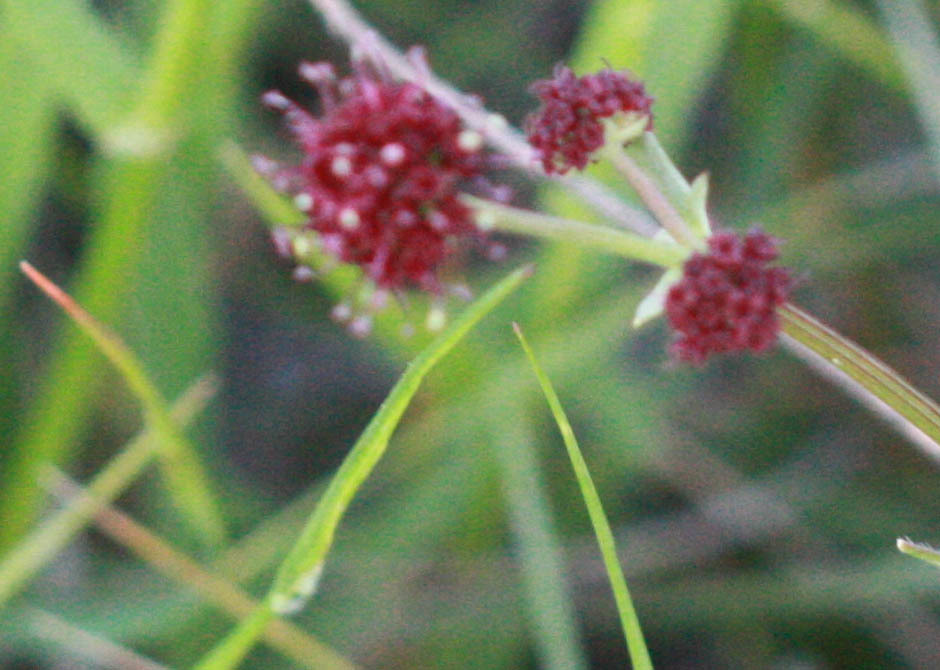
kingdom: Plantae
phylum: Tracheophyta
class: Magnoliopsida
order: Apiales
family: Apiaceae
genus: Sanicula
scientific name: Sanicula bipinnatifida
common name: Shoe-buttons
